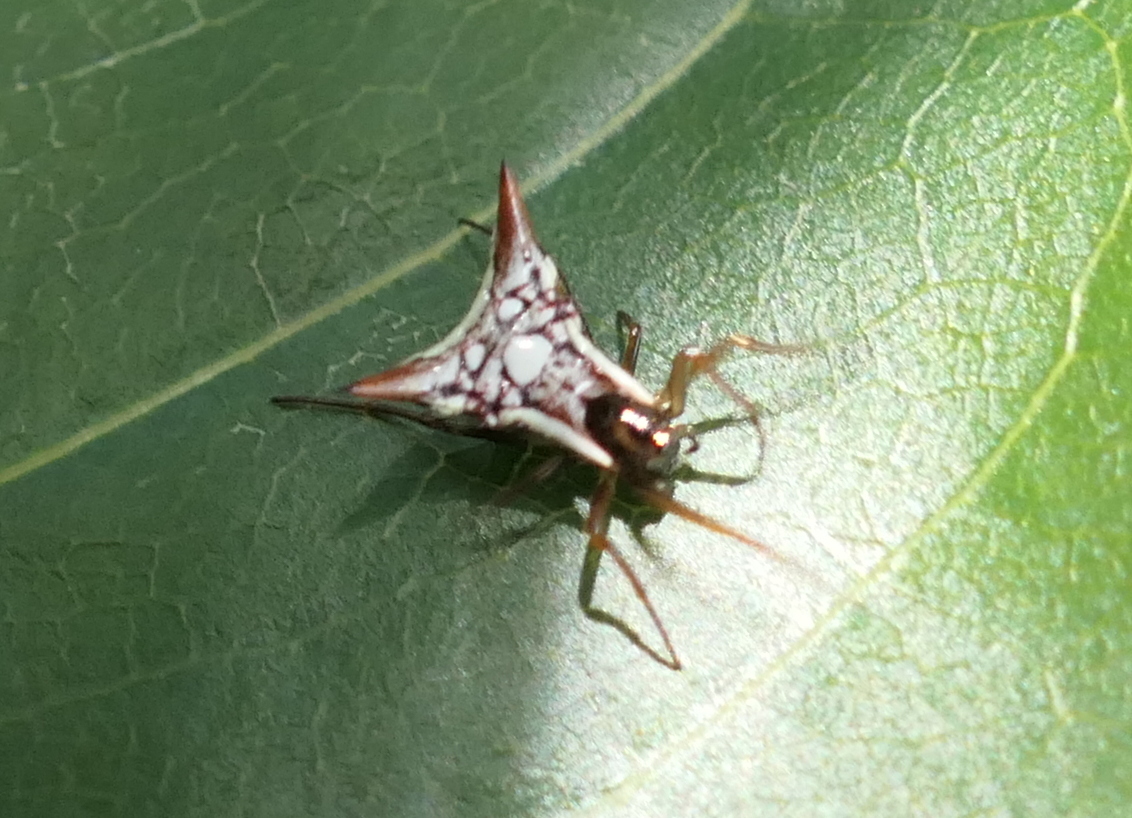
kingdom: Animalia
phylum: Arthropoda
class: Arachnida
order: Araneae
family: Araneidae
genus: Micrathena
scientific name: Micrathena evansi
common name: Orb weavers
